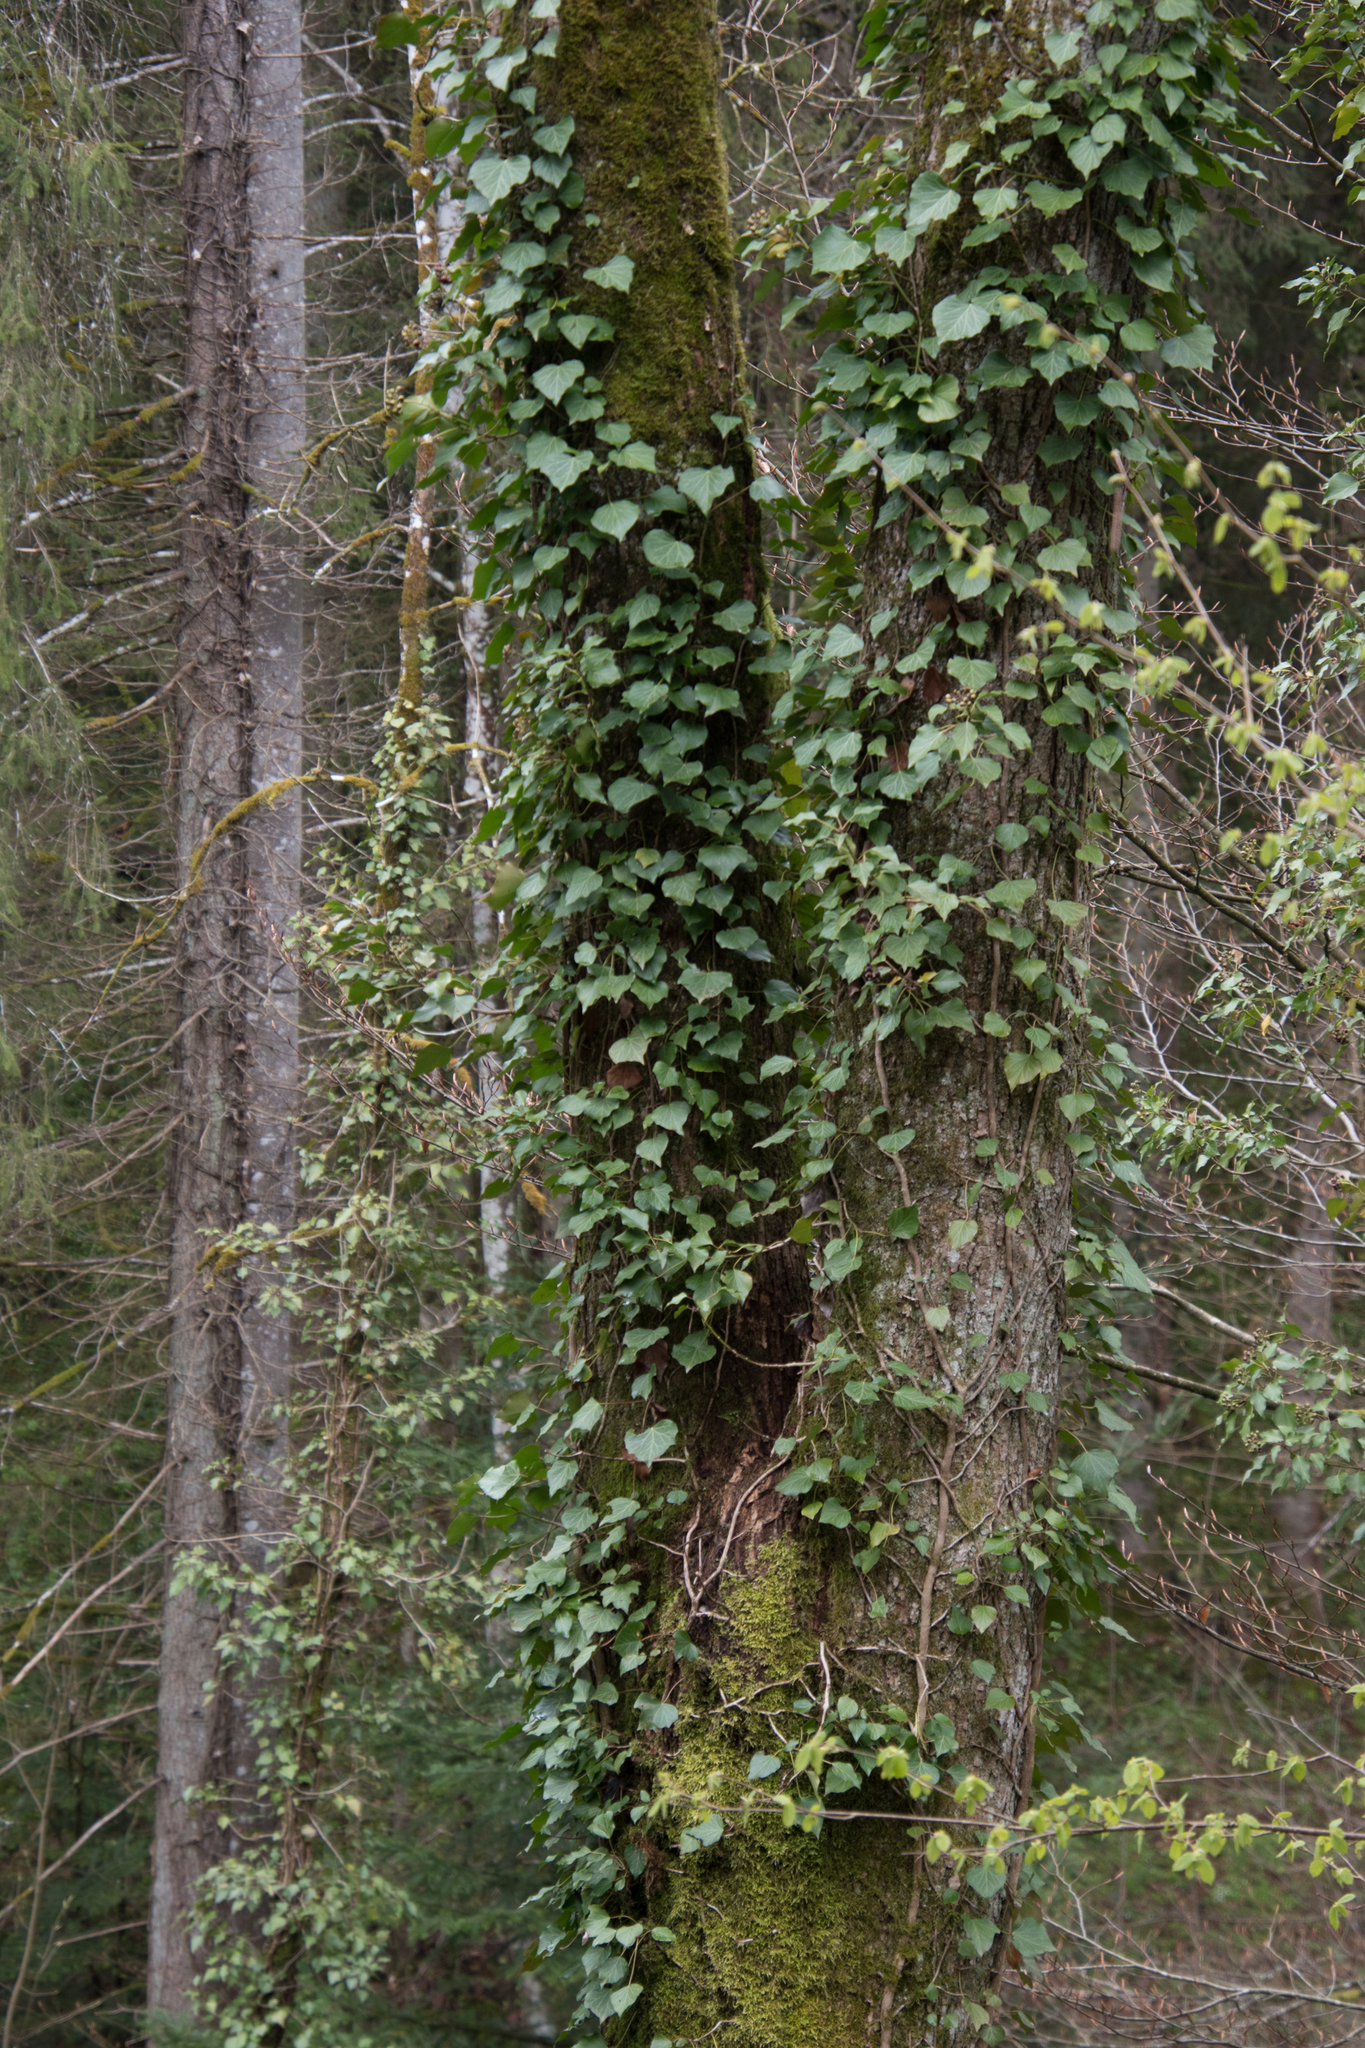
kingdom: Plantae
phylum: Tracheophyta
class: Magnoliopsida
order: Apiales
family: Araliaceae
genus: Hedera
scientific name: Hedera helix
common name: Ivy
